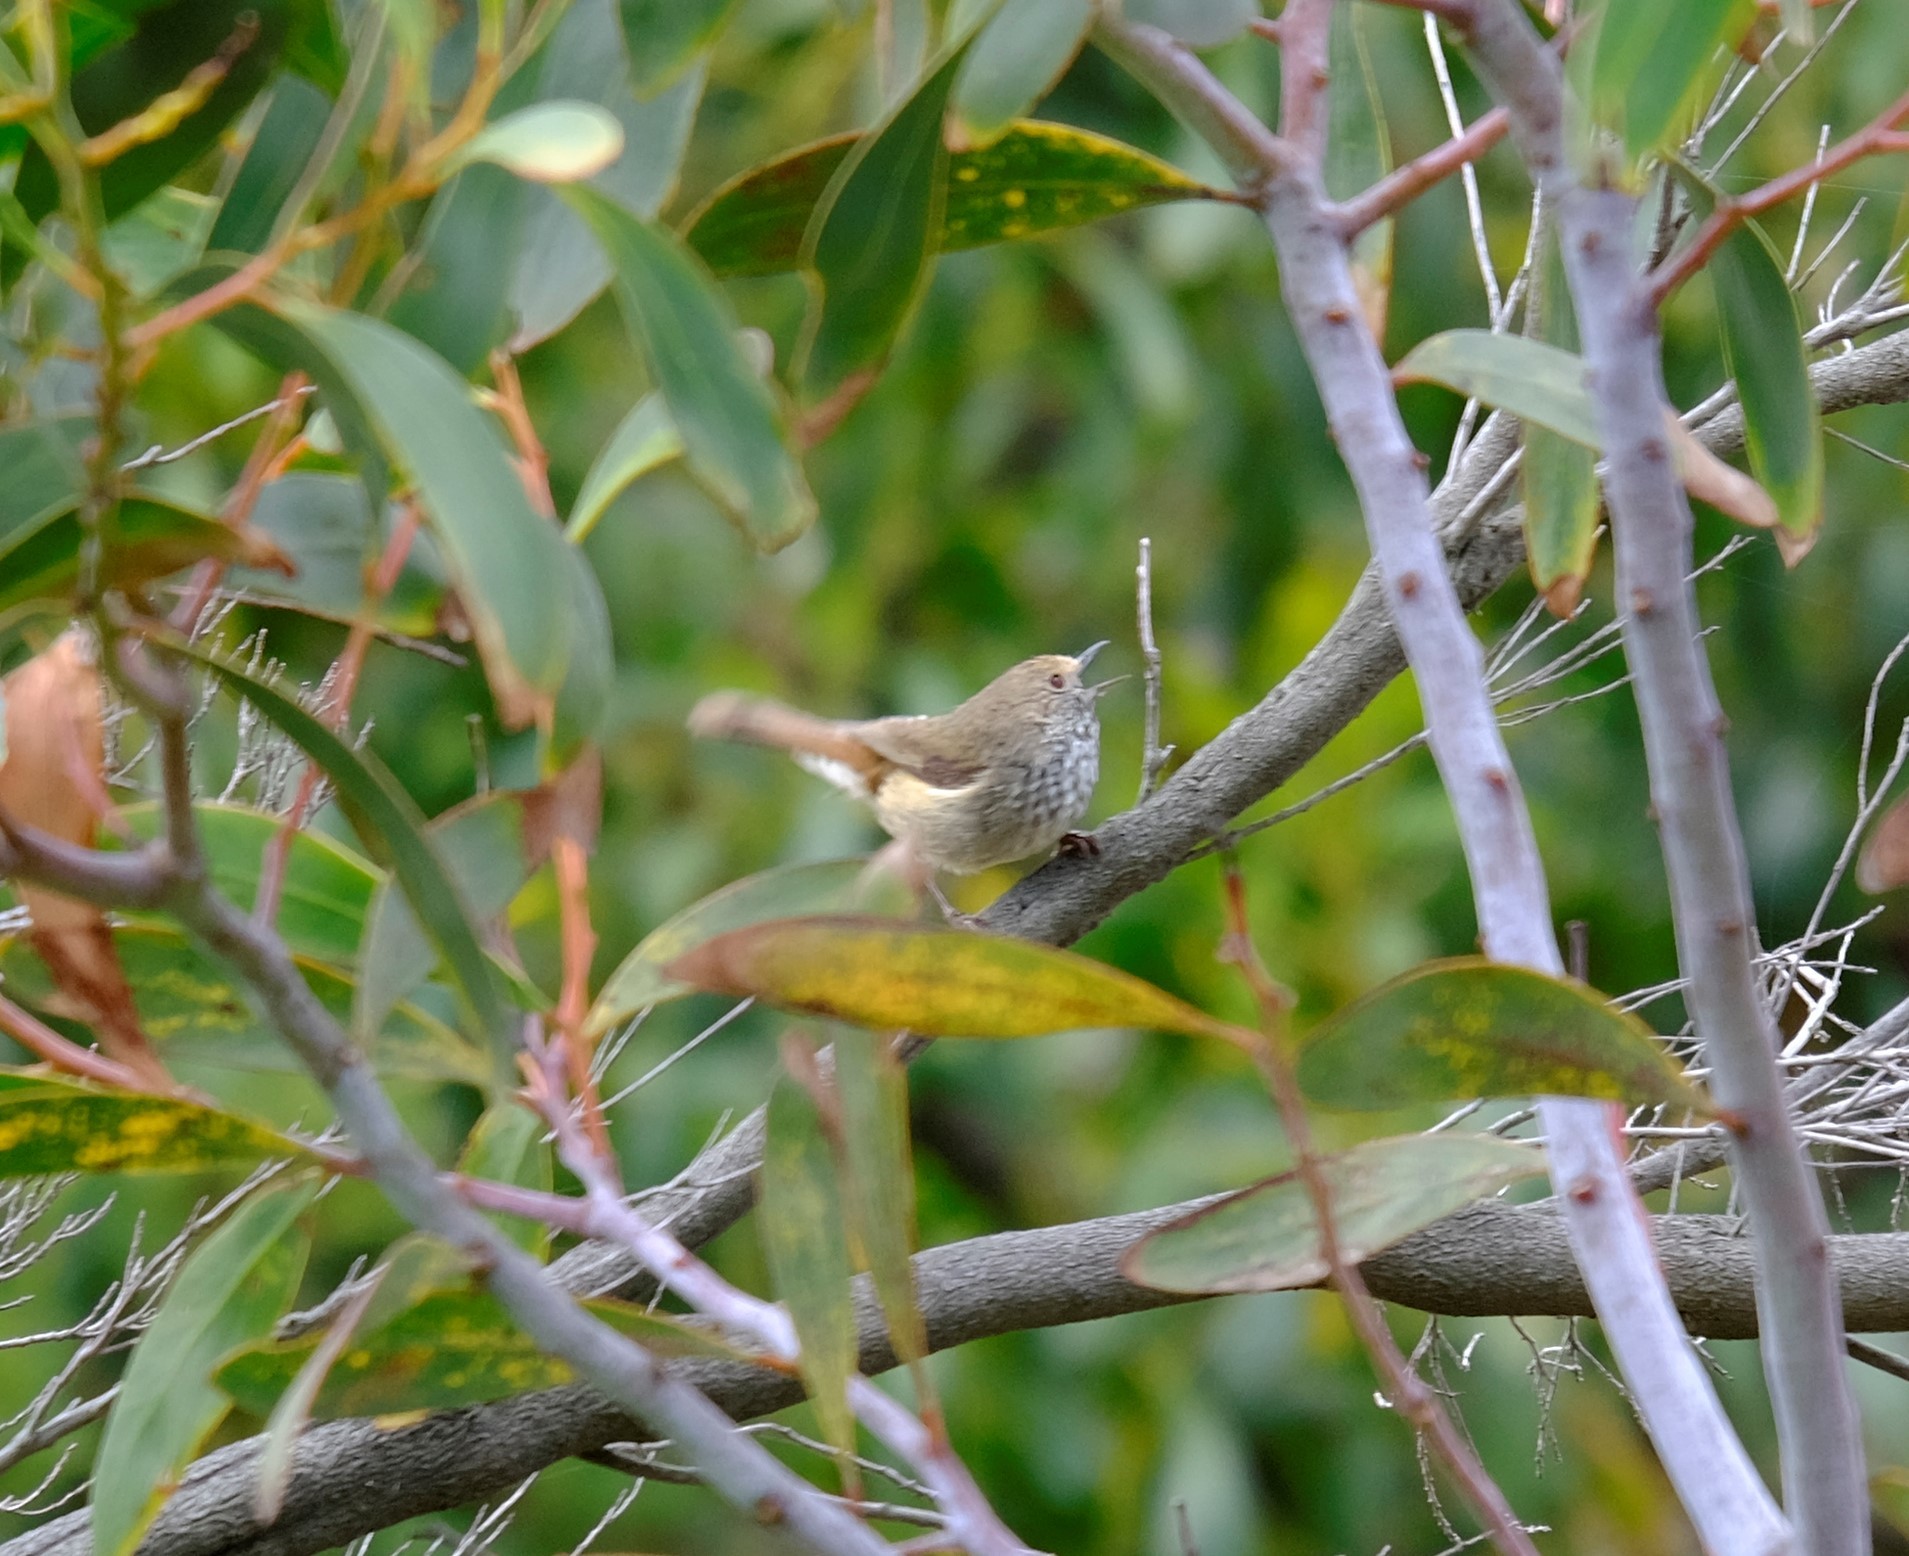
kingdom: Animalia
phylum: Chordata
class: Aves
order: Passeriformes
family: Acanthizidae
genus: Acanthiza
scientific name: Acanthiza pusilla
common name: Brown thornbill
